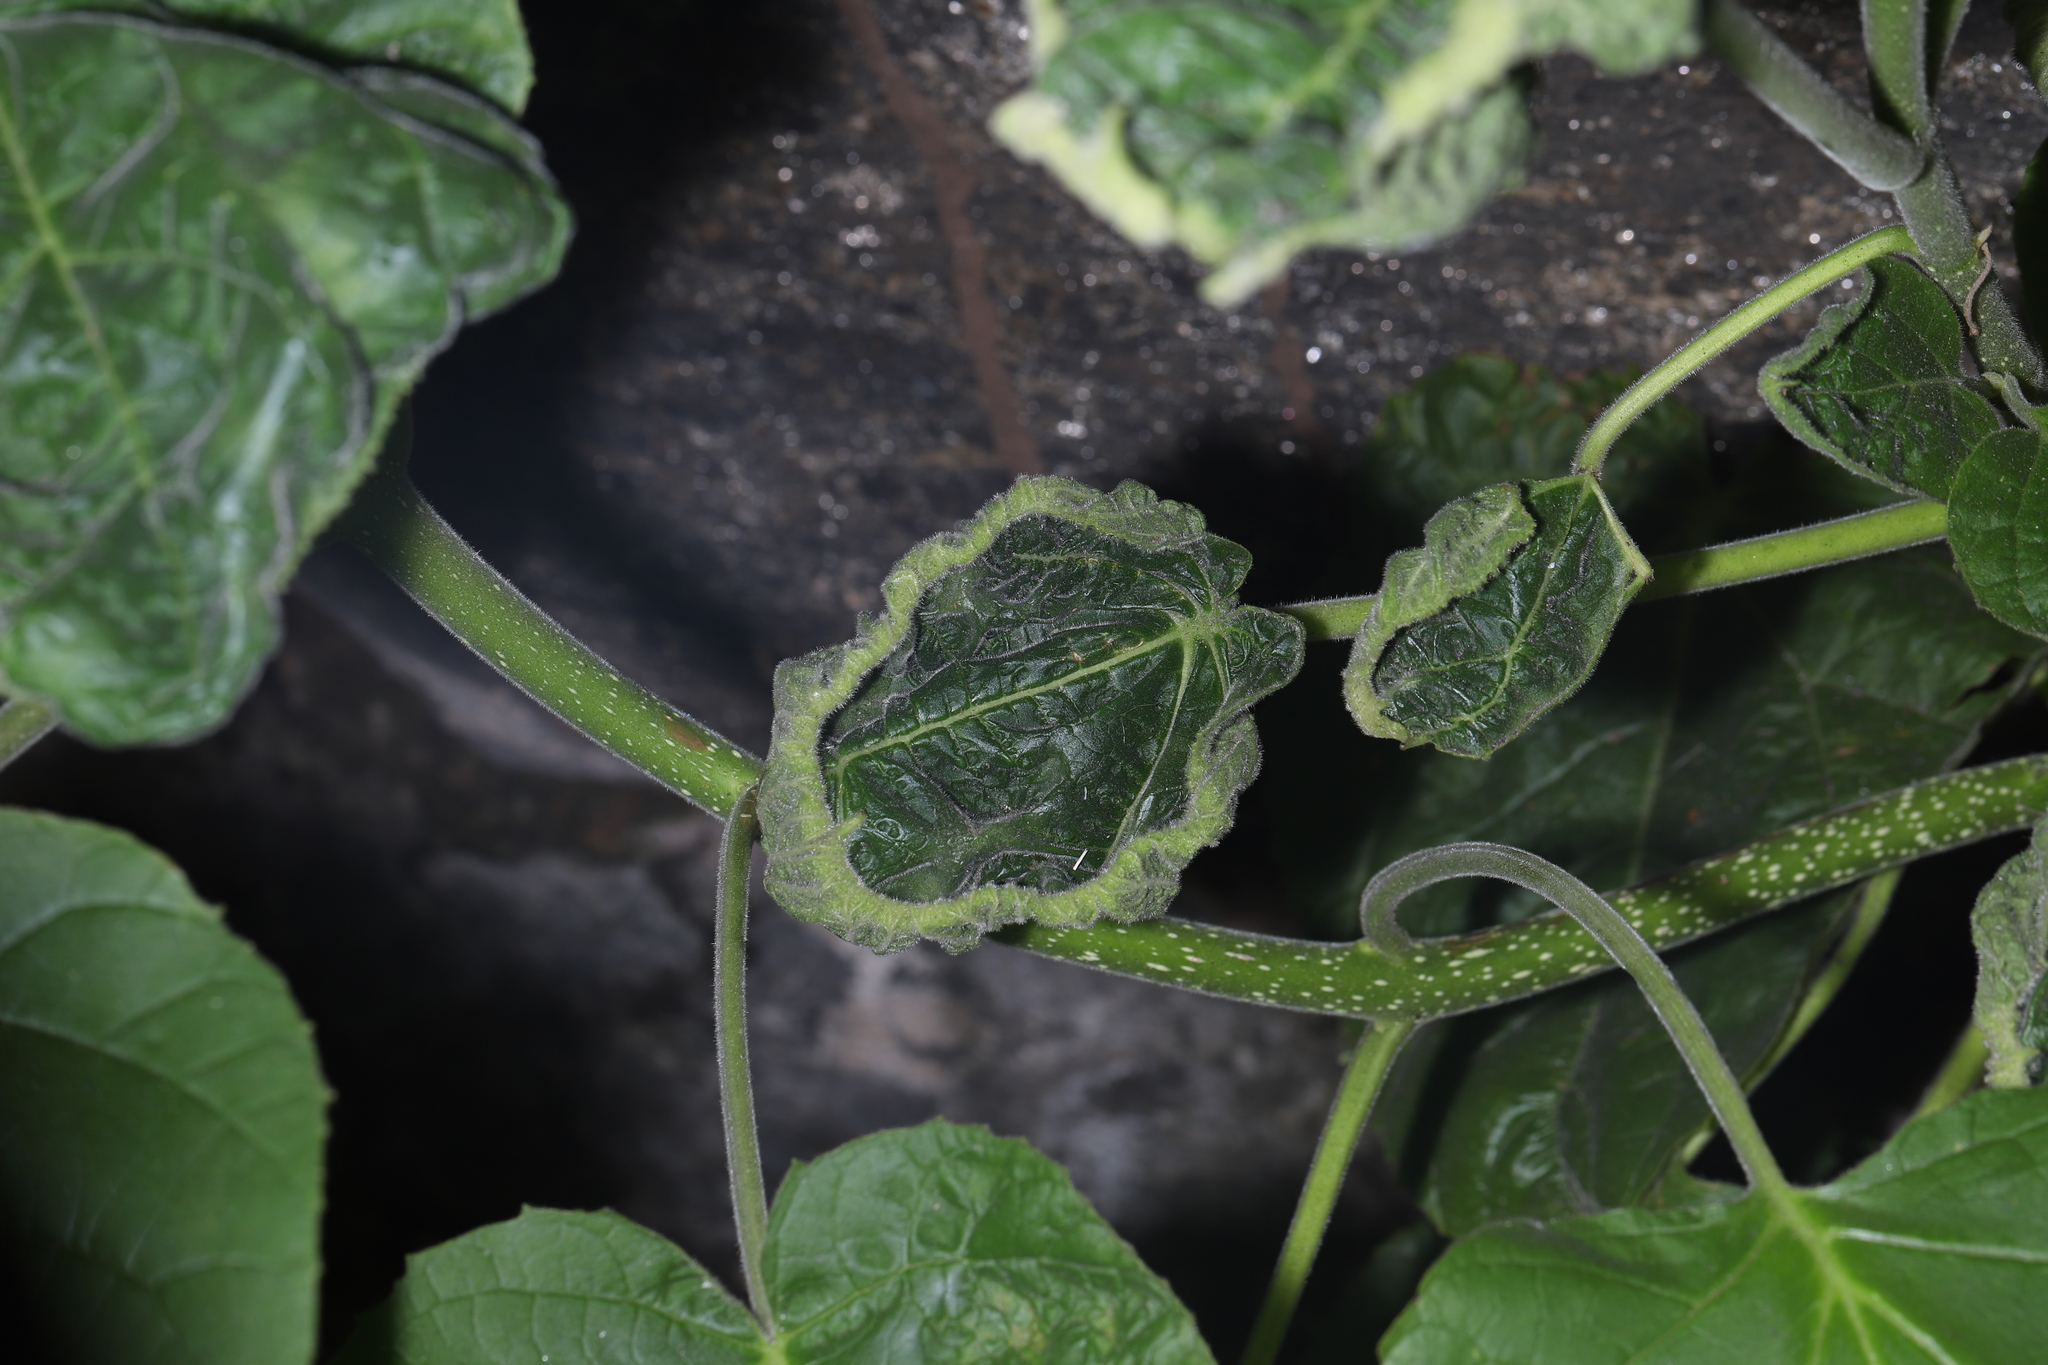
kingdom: Plantae
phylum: Tracheophyta
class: Magnoliopsida
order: Lamiales
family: Paulowniaceae
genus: Paulownia
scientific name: Paulownia tomentosa
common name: Foxglove-tree
